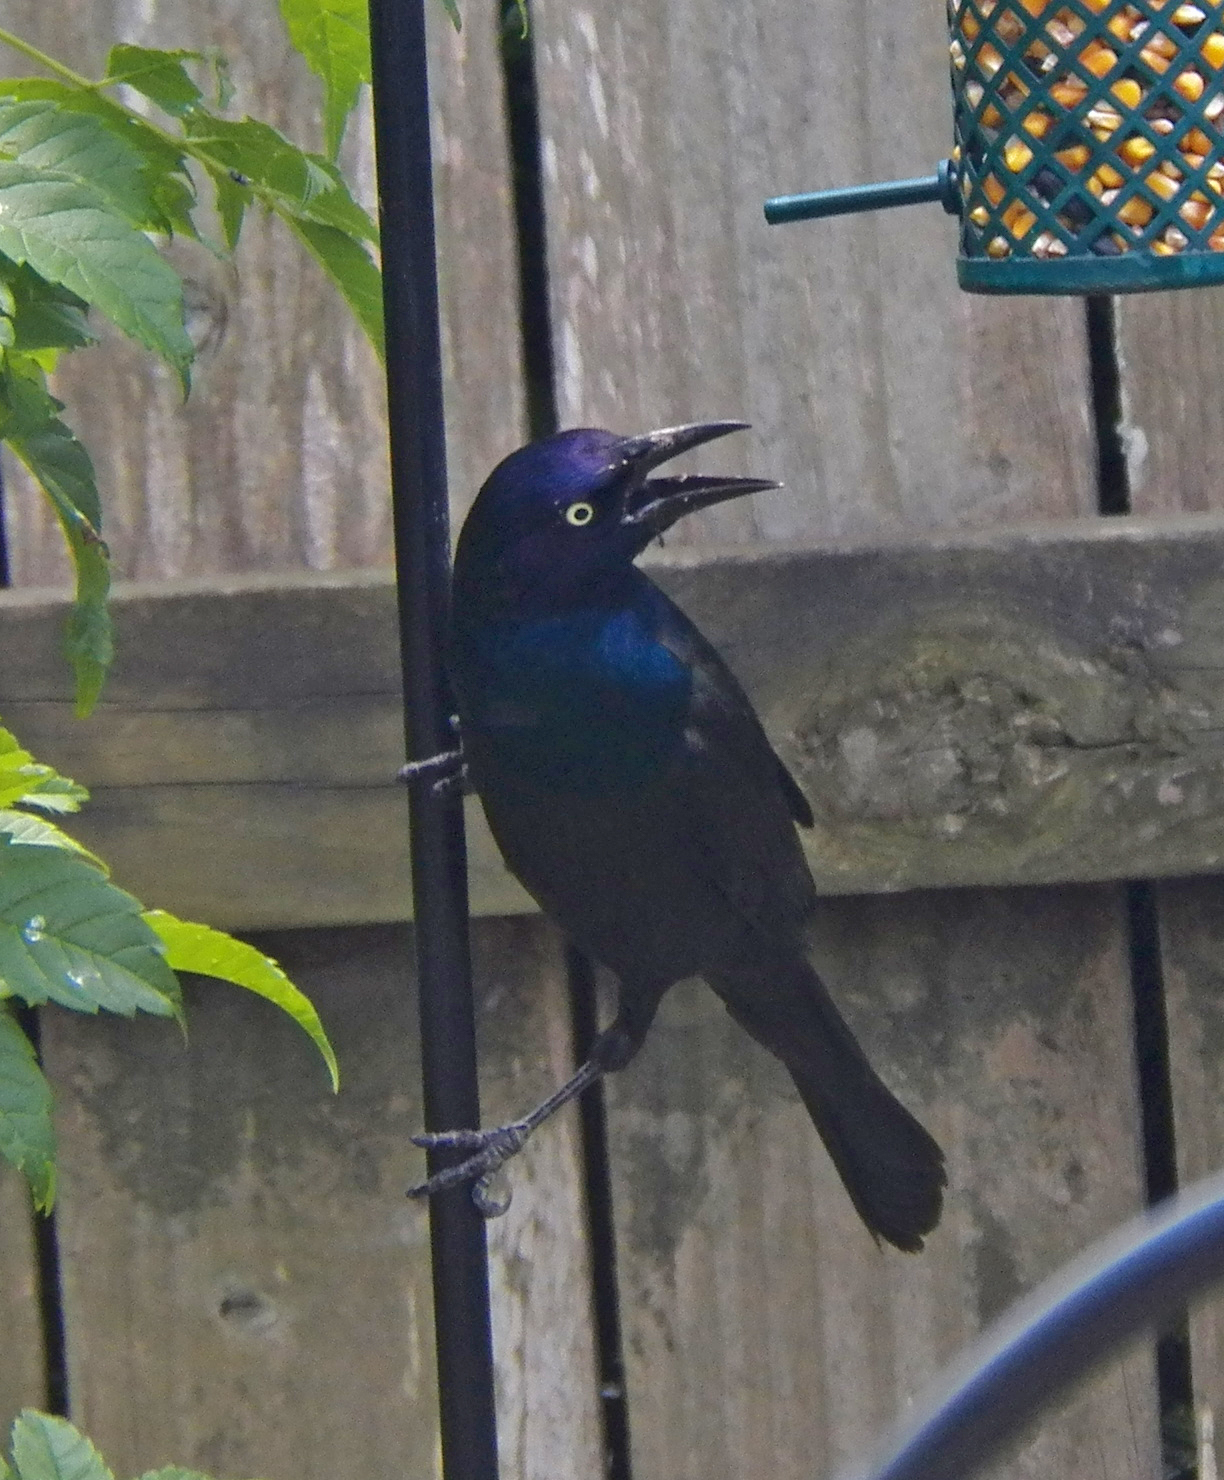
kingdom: Animalia
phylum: Chordata
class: Aves
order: Passeriformes
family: Icteridae
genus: Quiscalus
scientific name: Quiscalus quiscula
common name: Common grackle
